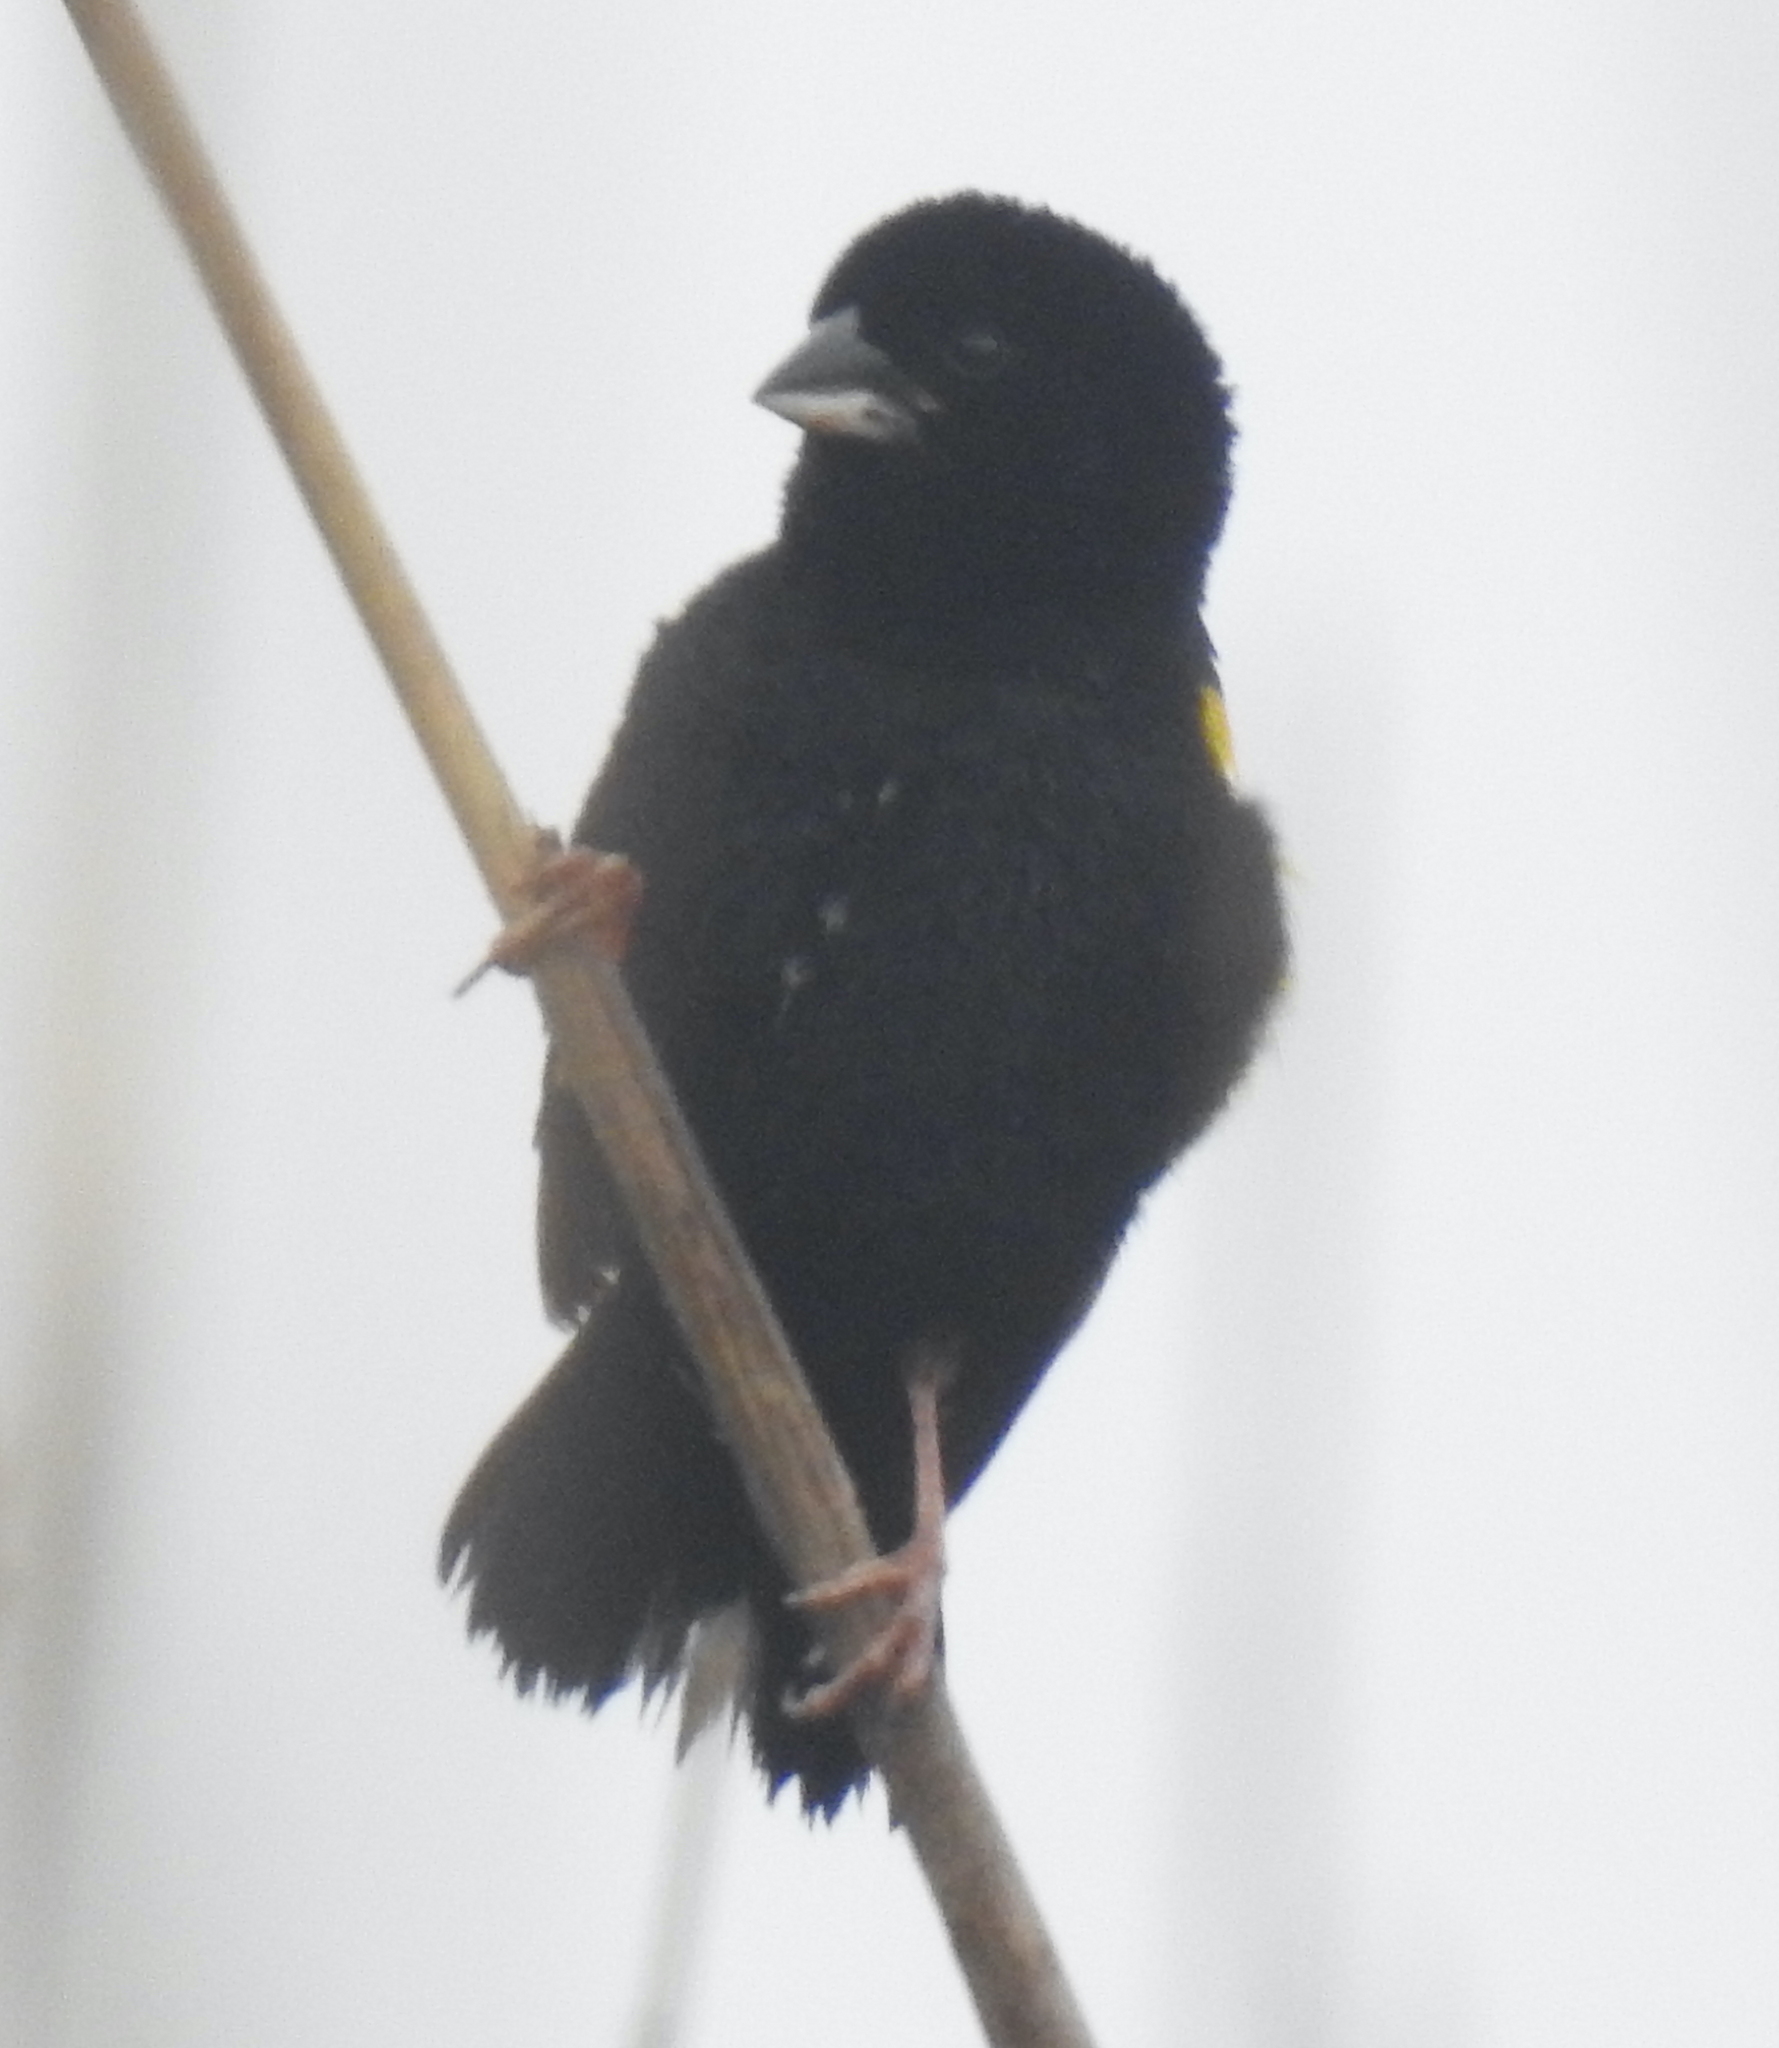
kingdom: Animalia
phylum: Chordata
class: Aves
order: Passeriformes
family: Ploceidae
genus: Euplectes
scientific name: Euplectes capensis
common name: Yellow bishop
